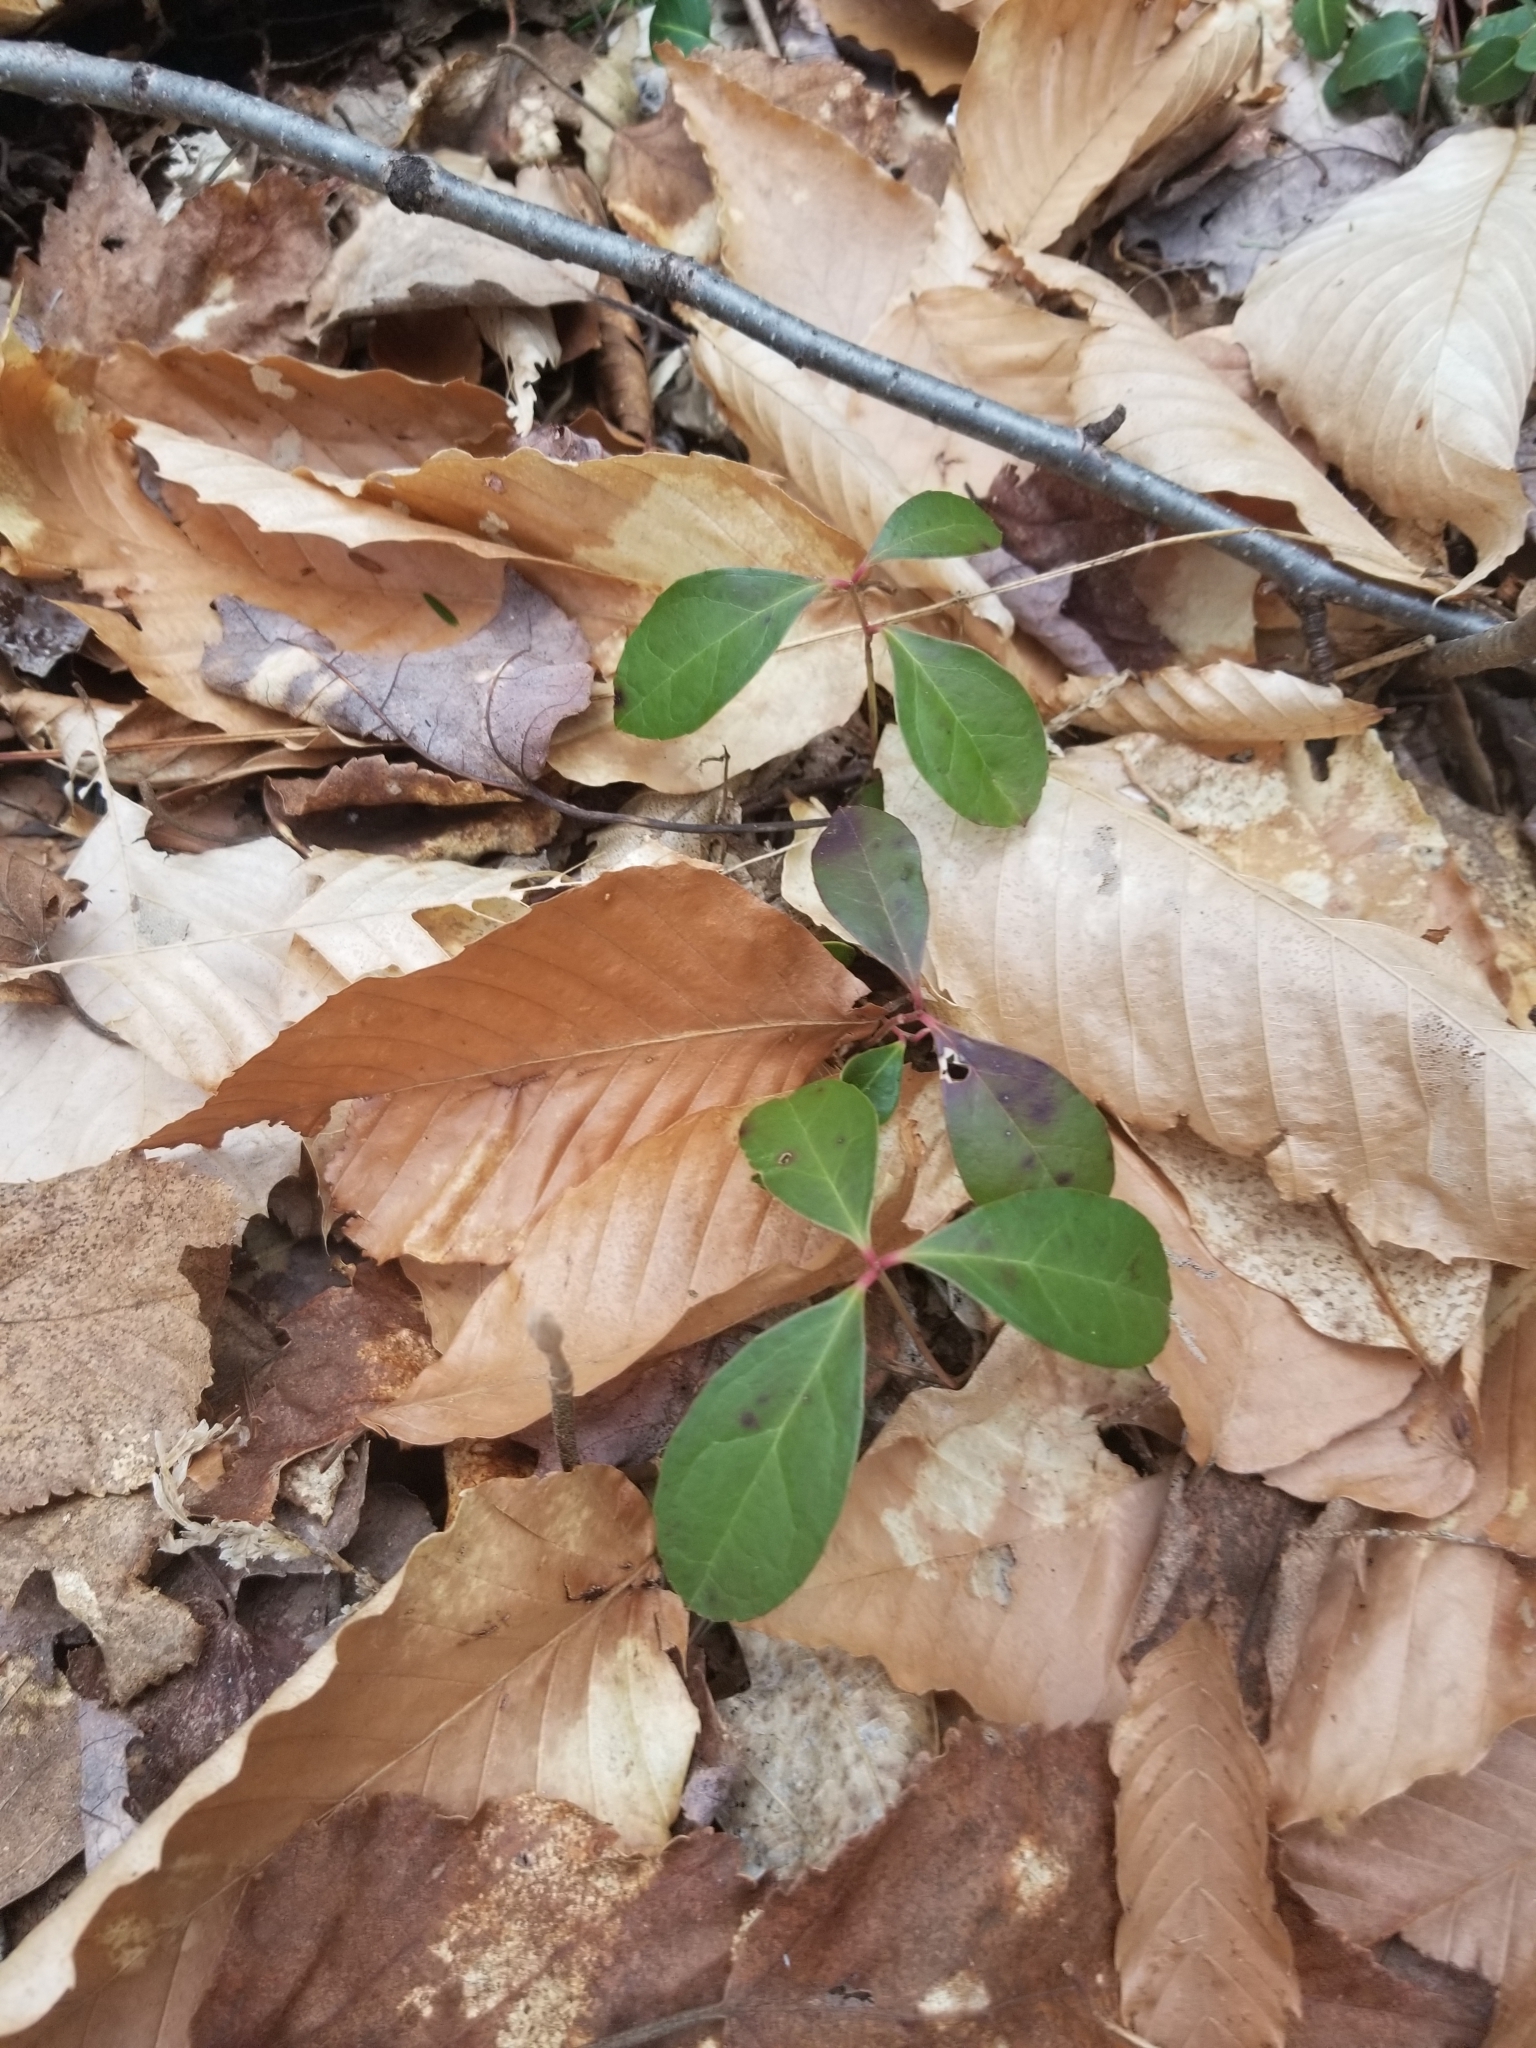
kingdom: Plantae
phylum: Tracheophyta
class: Magnoliopsida
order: Ericales
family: Ericaceae
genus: Gaultheria
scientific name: Gaultheria procumbens
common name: Checkerberry
